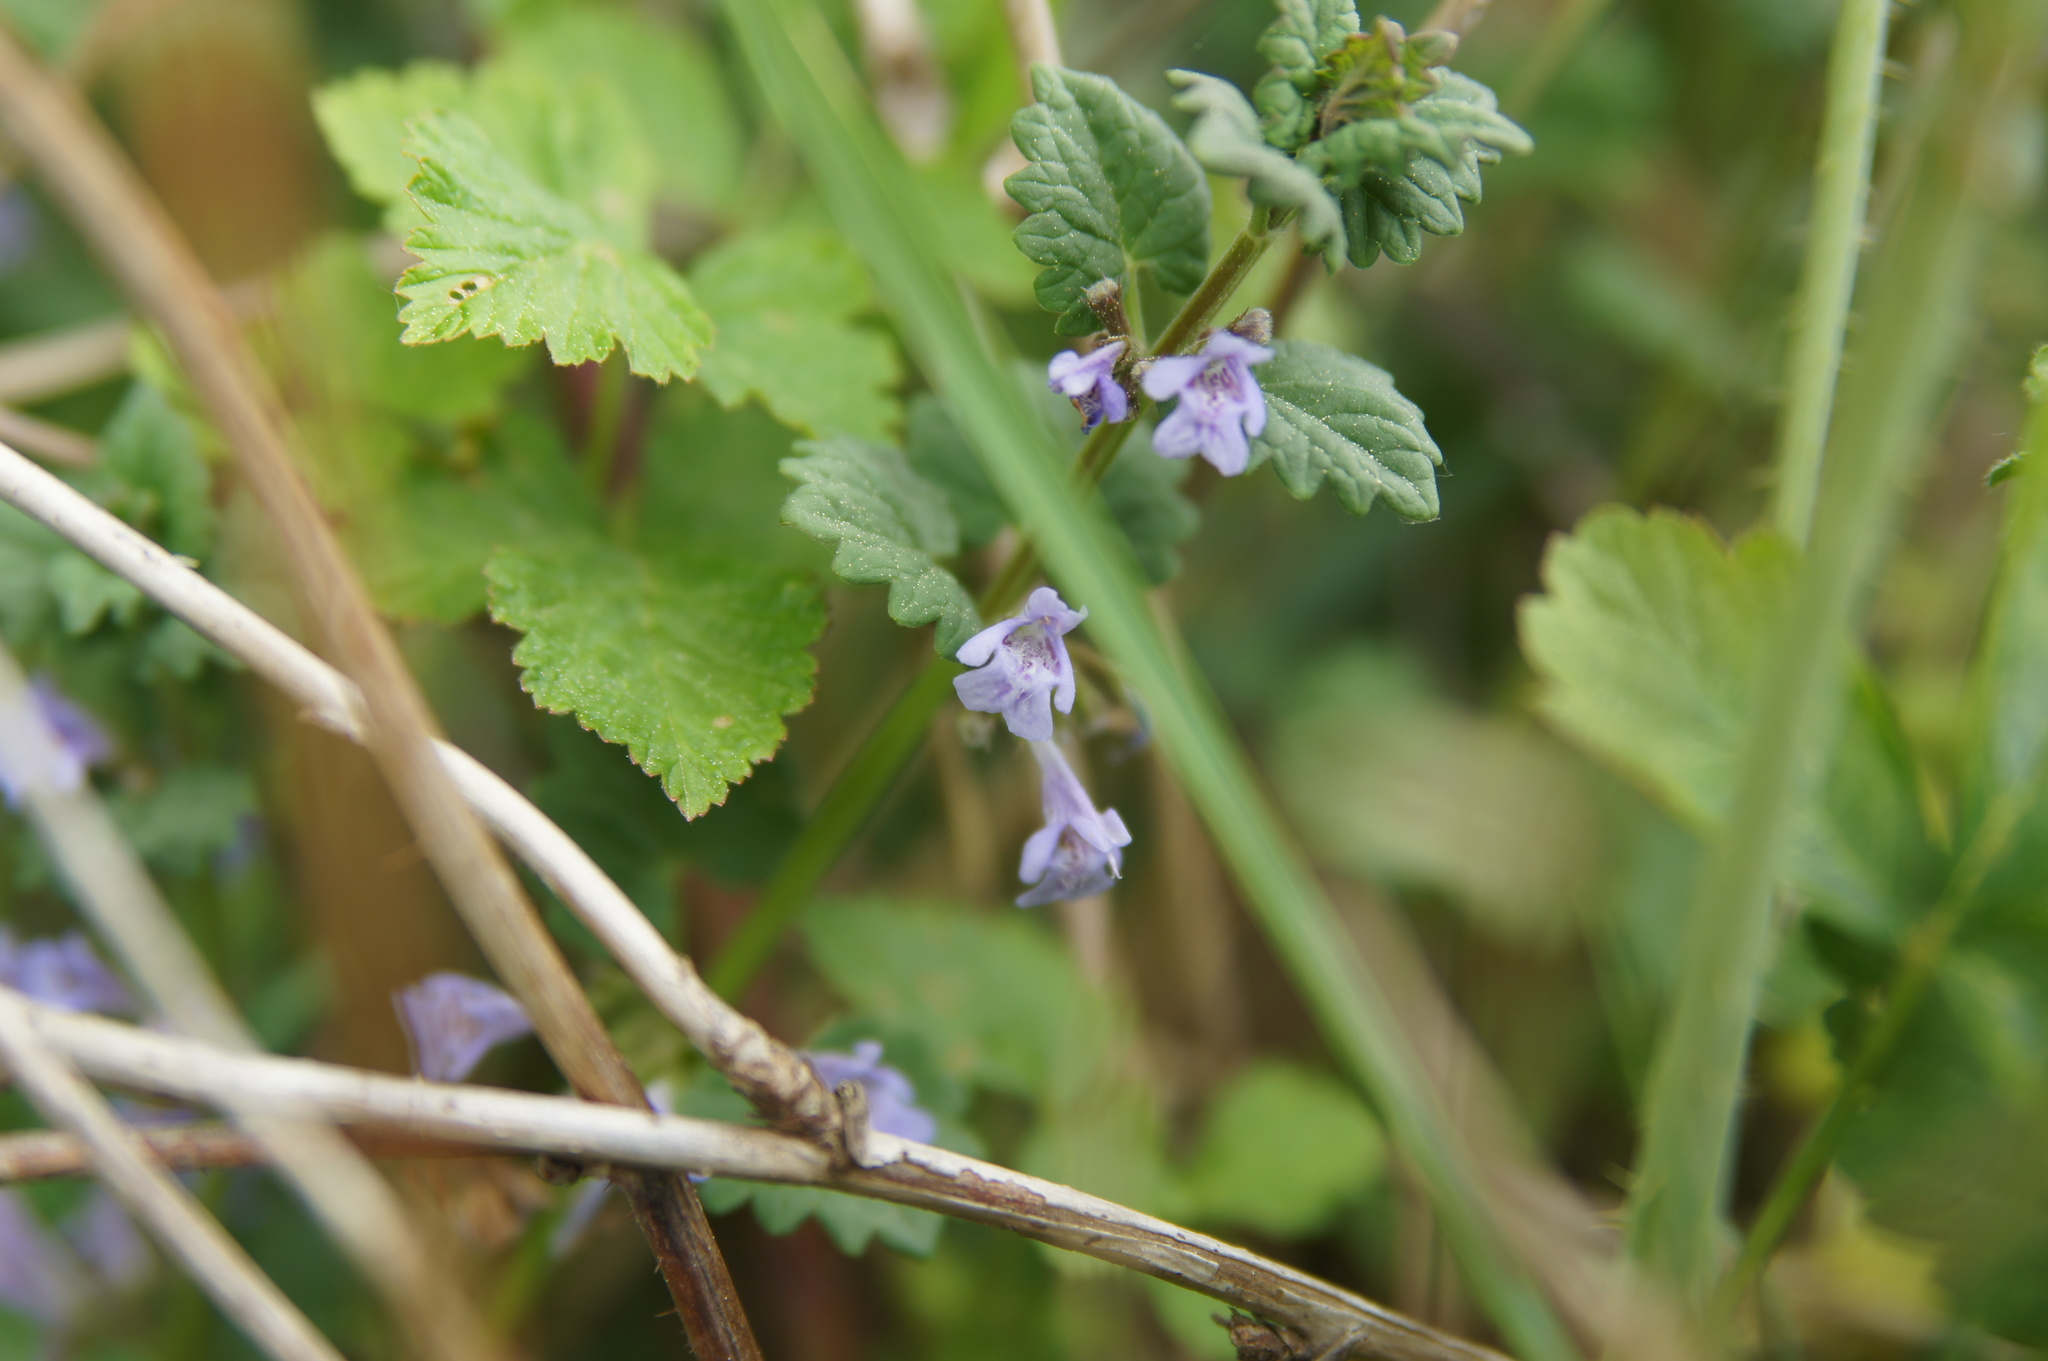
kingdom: Plantae
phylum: Tracheophyta
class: Magnoliopsida
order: Lamiales
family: Lamiaceae
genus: Glechoma
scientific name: Glechoma hederacea
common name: Ground ivy
